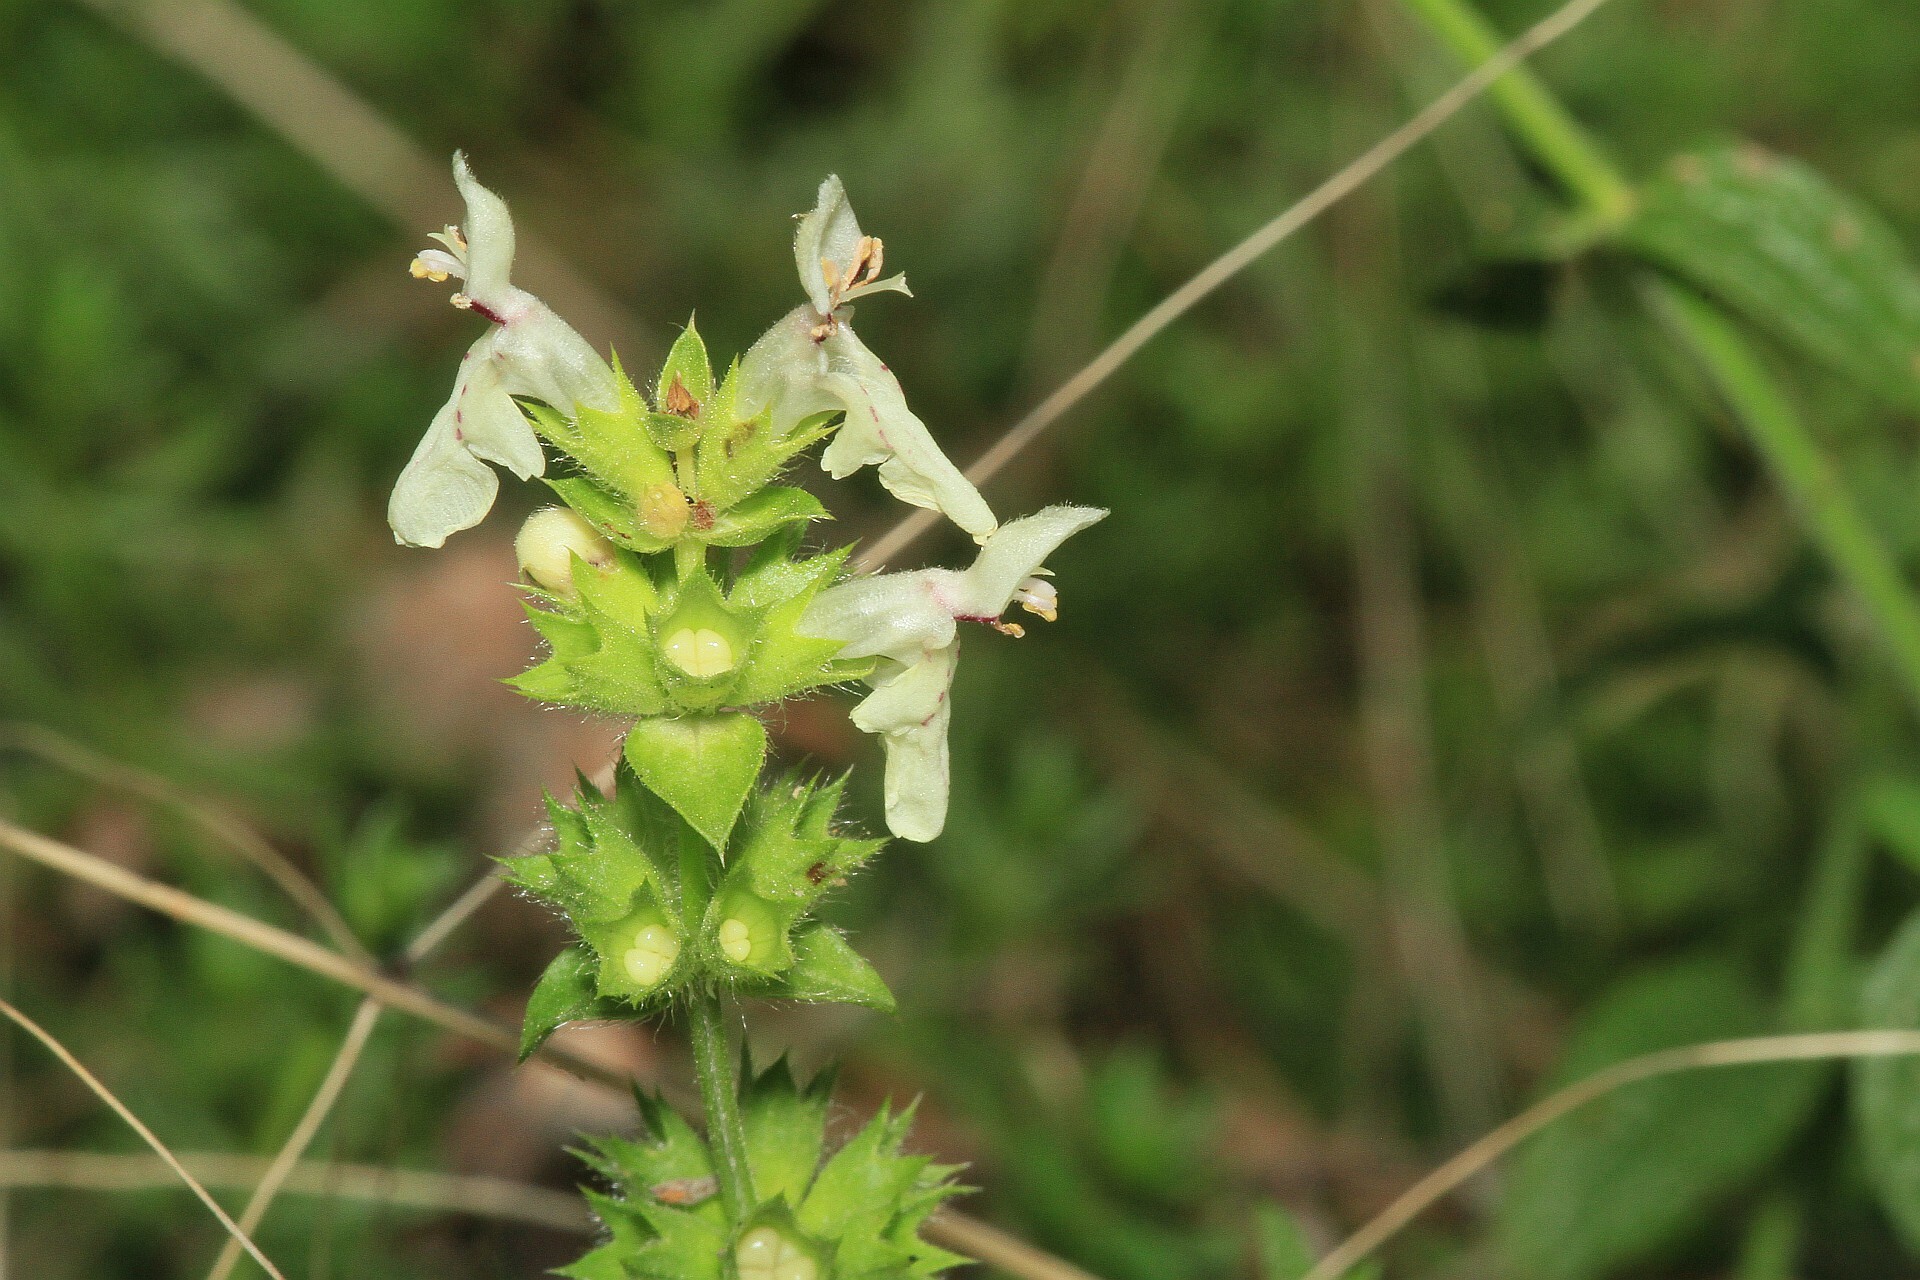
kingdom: Plantae
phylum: Tracheophyta
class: Magnoliopsida
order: Lamiales
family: Lamiaceae
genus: Stachys
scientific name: Stachys recta
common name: Perennial yellow-woundwort
